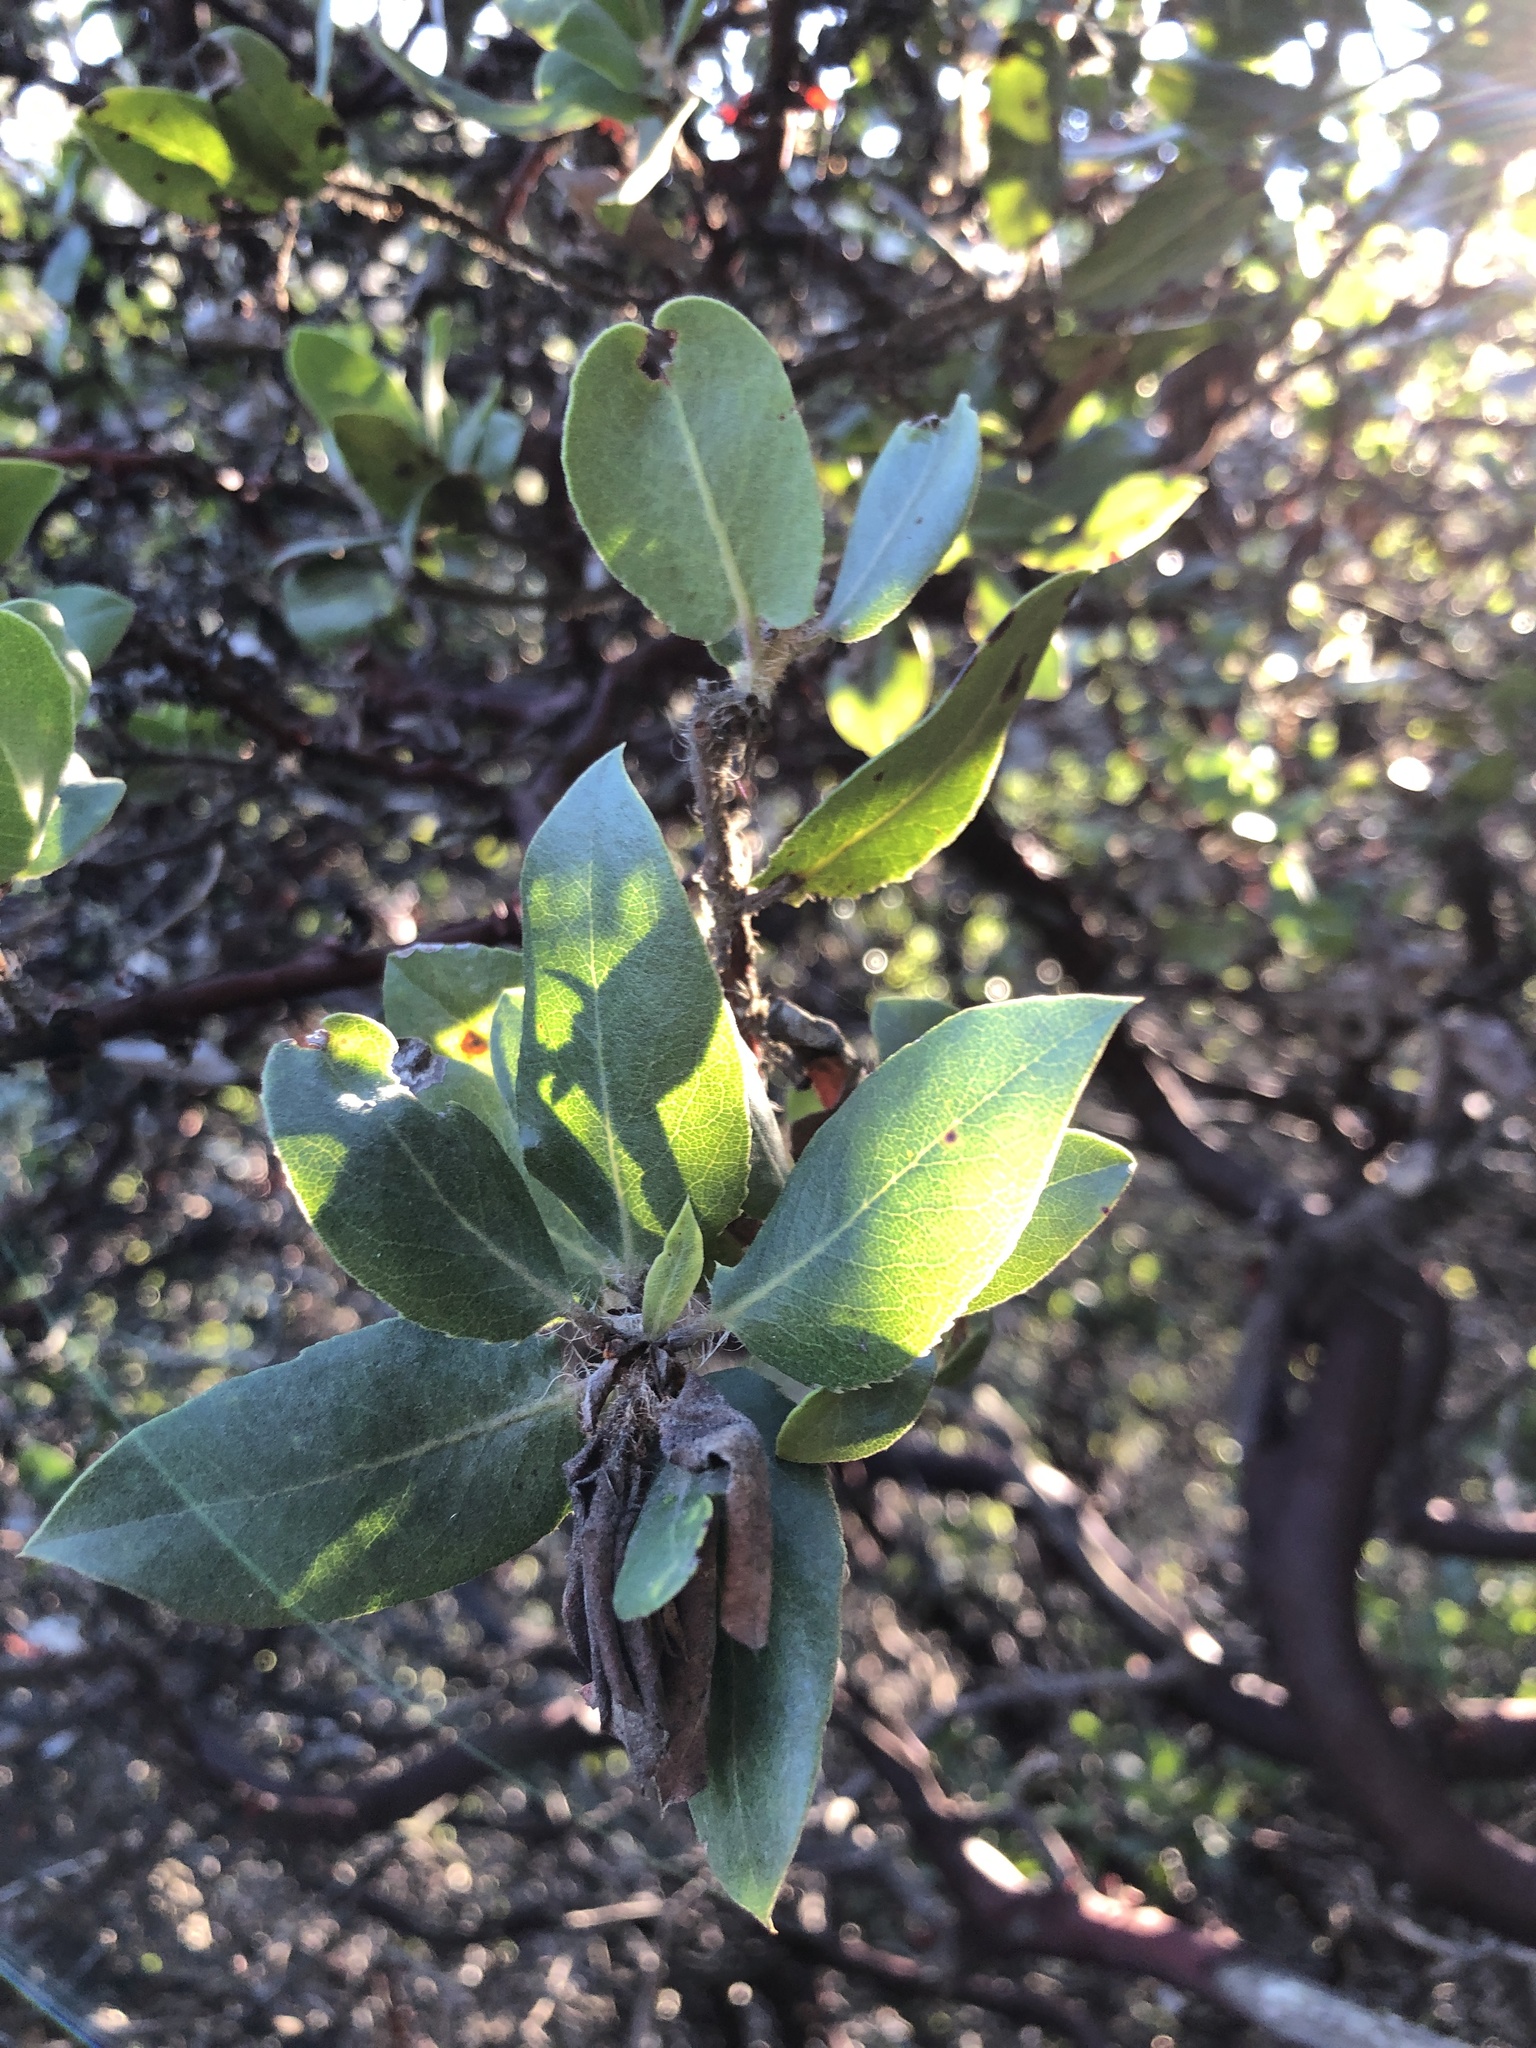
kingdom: Plantae
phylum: Tracheophyta
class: Magnoliopsida
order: Ericales
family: Ericaceae
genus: Arctostaphylos
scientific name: Arctostaphylos crustacea
